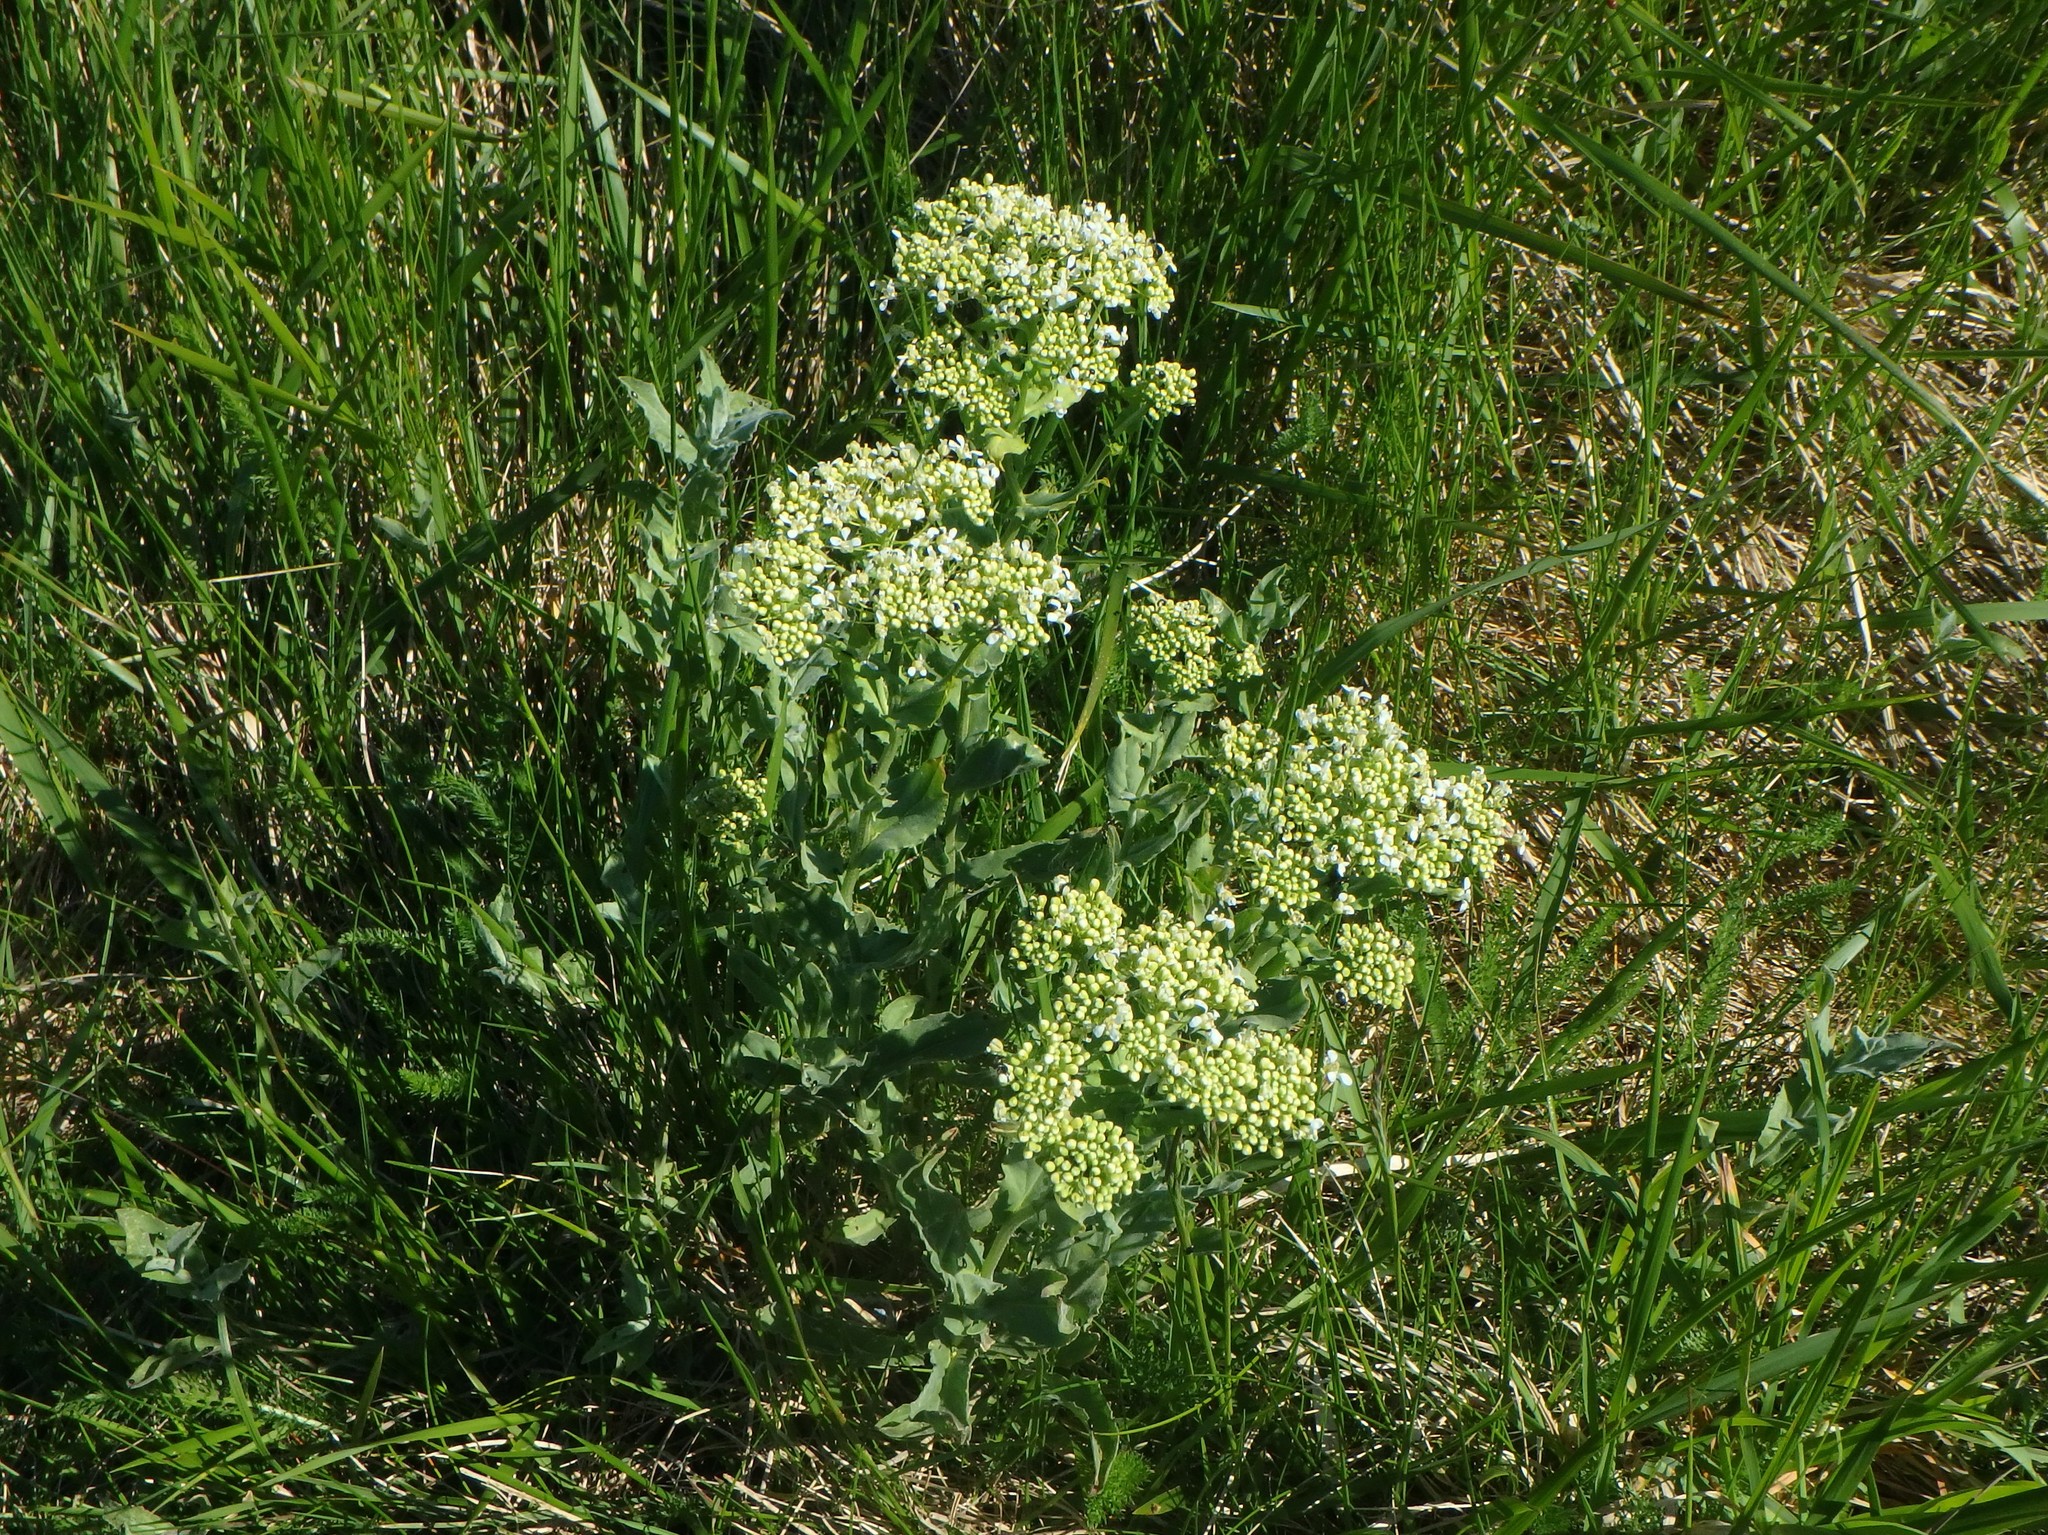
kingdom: Plantae
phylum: Tracheophyta
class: Magnoliopsida
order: Brassicales
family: Brassicaceae
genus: Lepidium
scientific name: Lepidium draba
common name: Hoary cress
